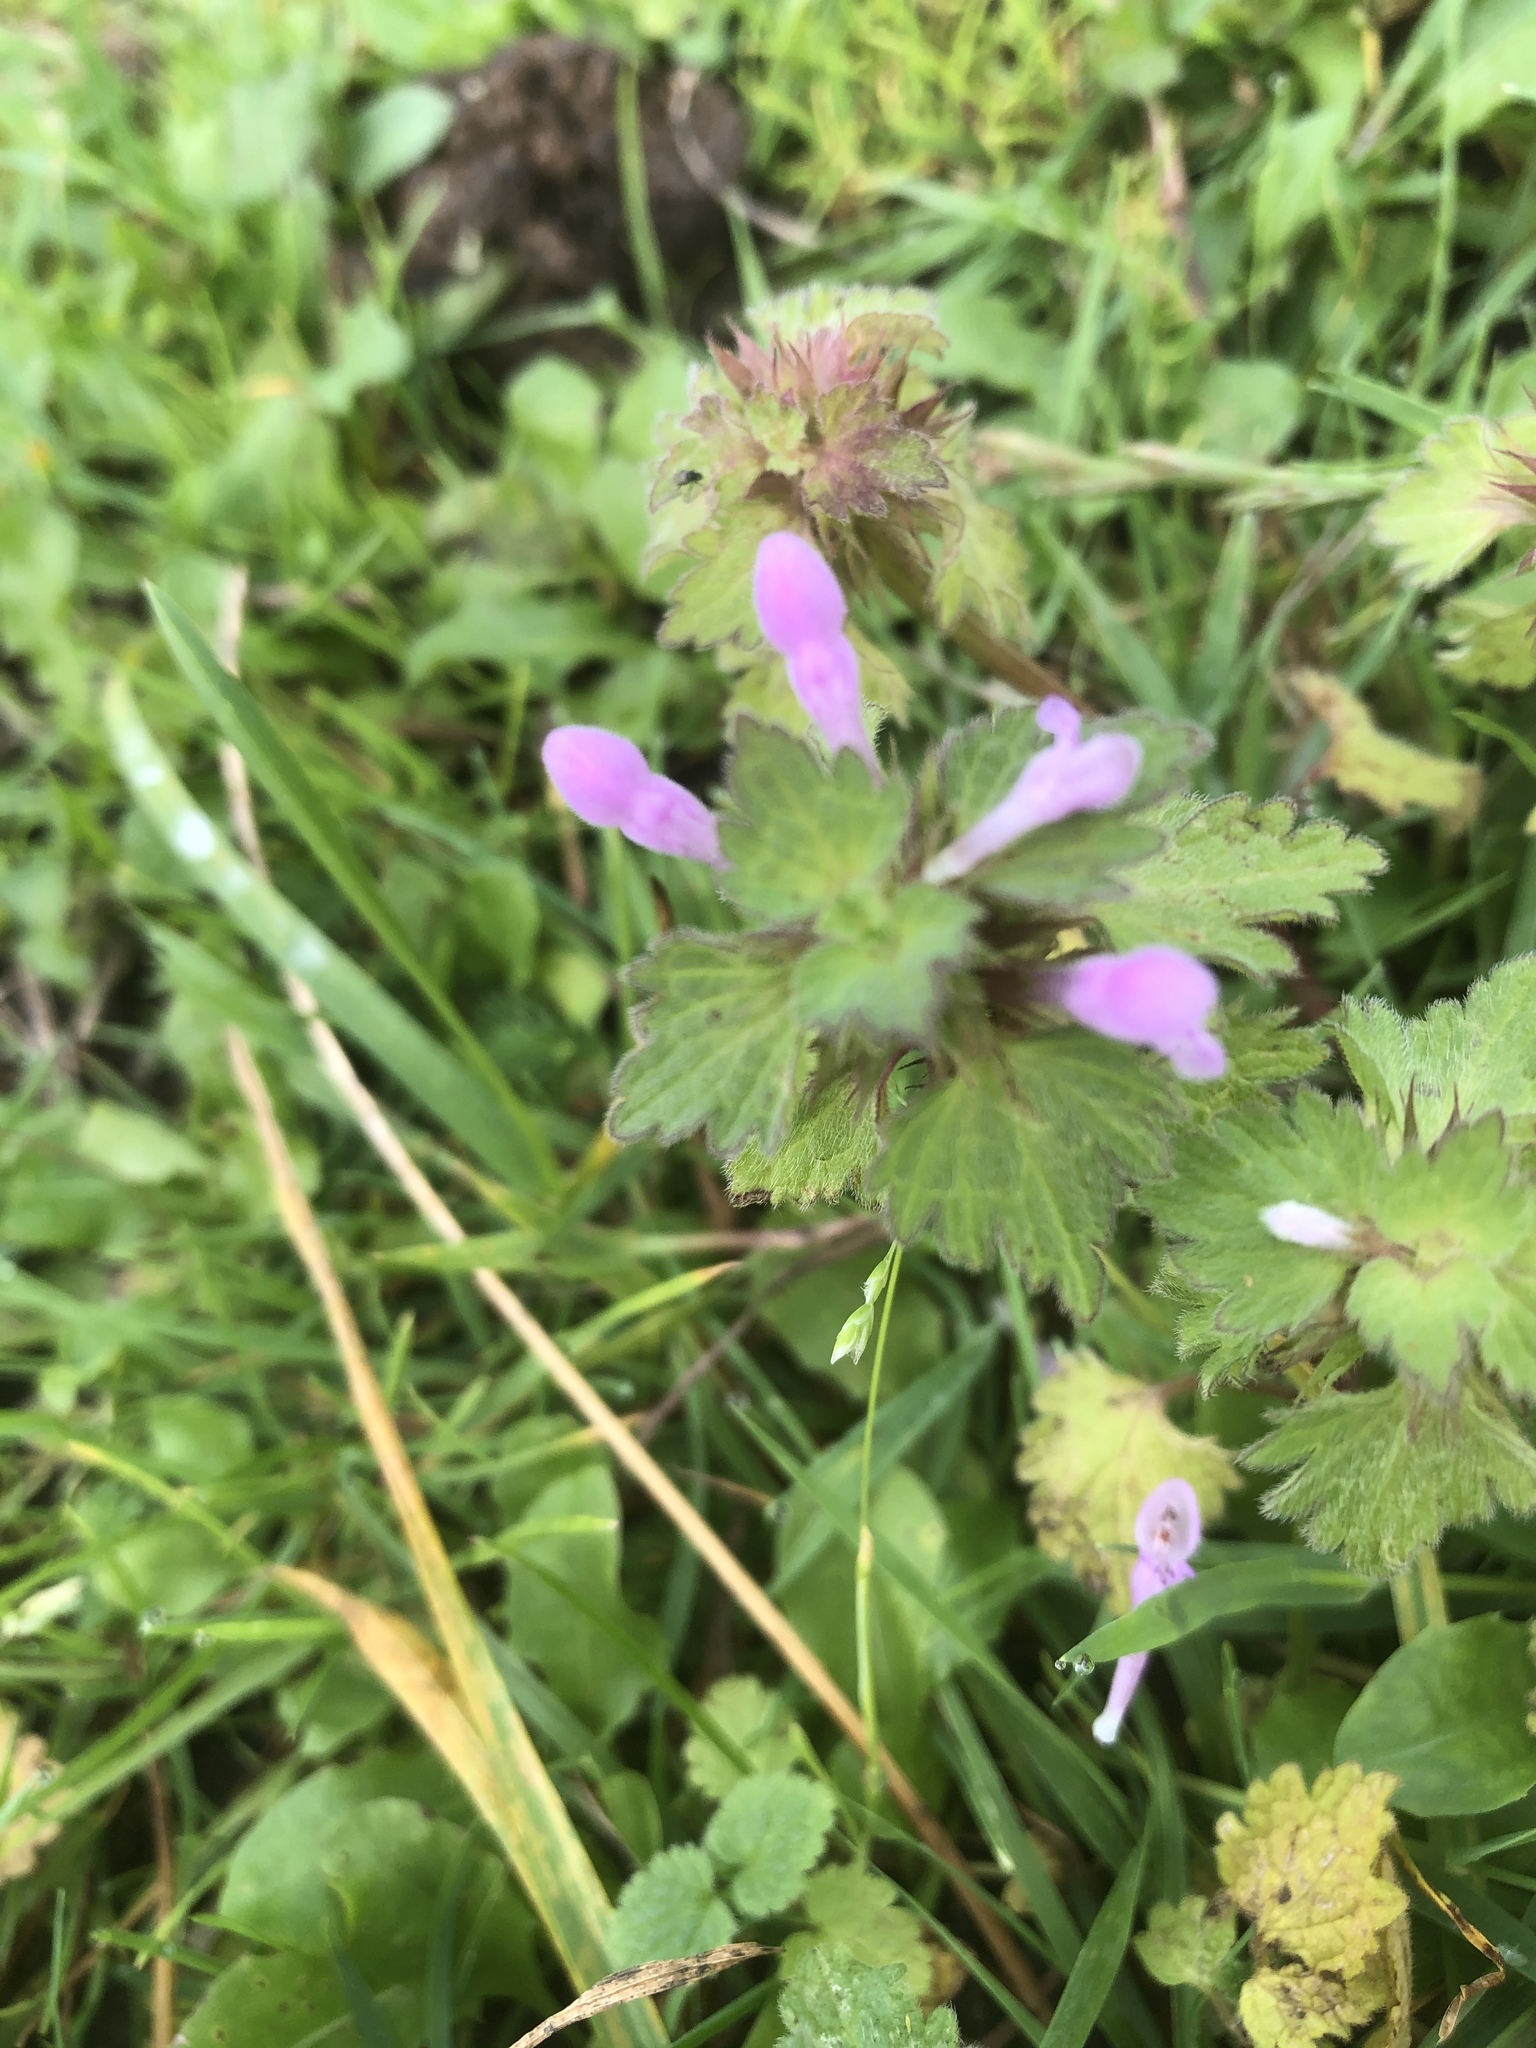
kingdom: Plantae
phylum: Tracheophyta
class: Magnoliopsida
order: Lamiales
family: Lamiaceae
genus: Lamium
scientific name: Lamium hybridum
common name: Cut-leaved dead-nettle
